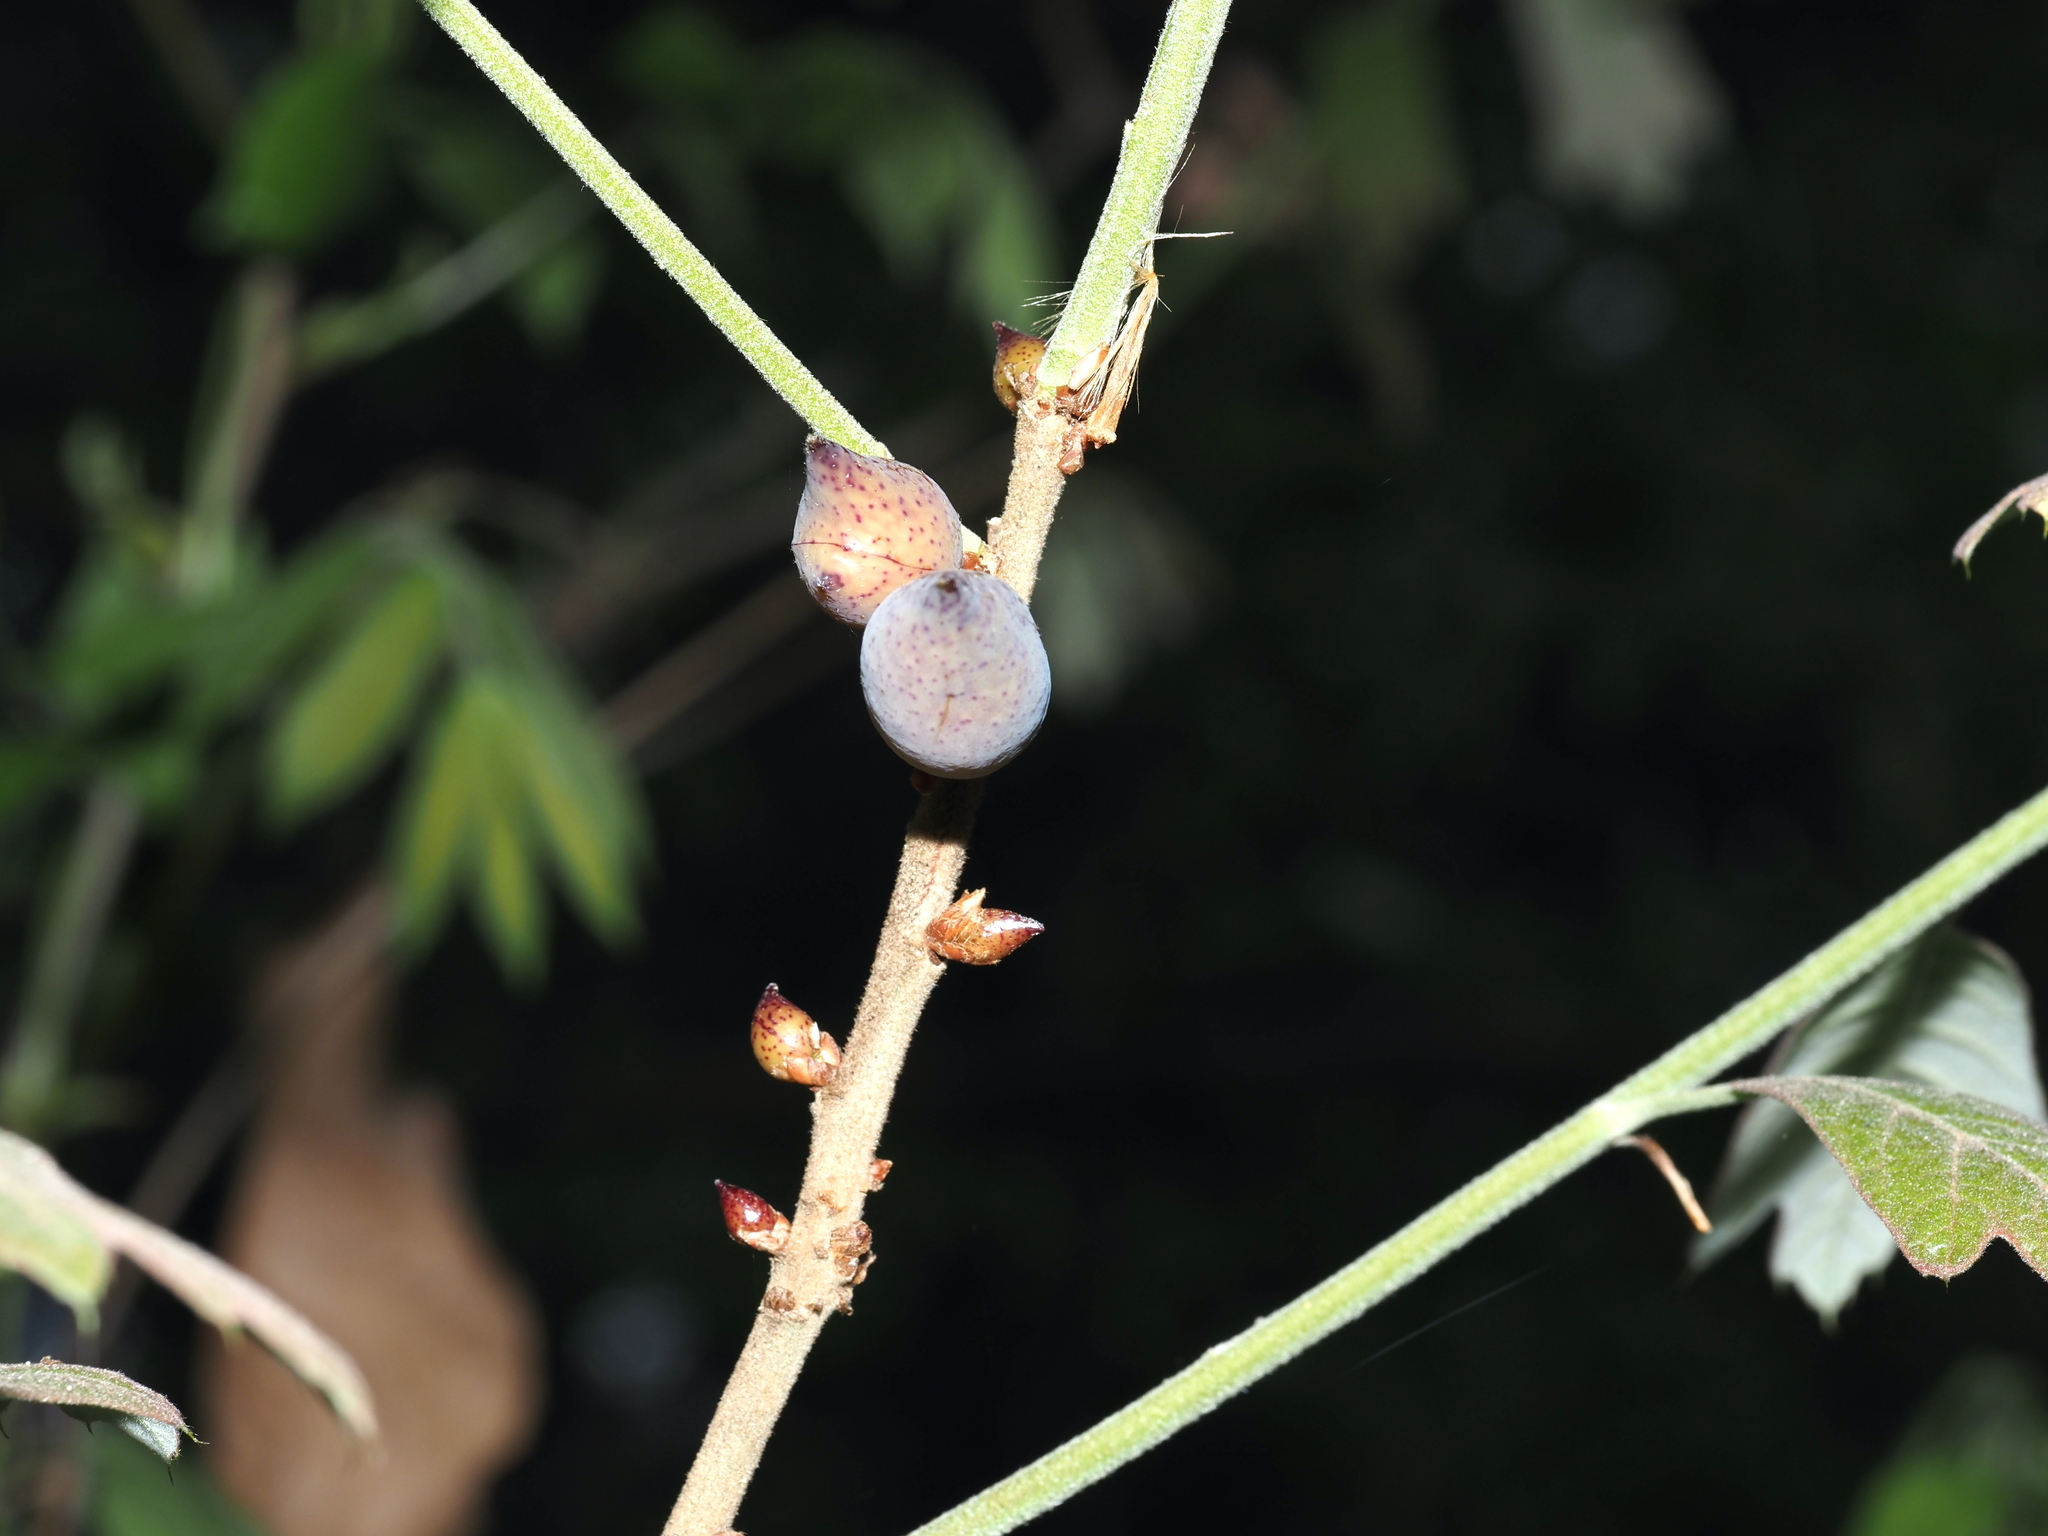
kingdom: Animalia
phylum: Arthropoda
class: Insecta
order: Hymenoptera
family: Cynipidae
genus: Amphibolips
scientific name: Amphibolips
